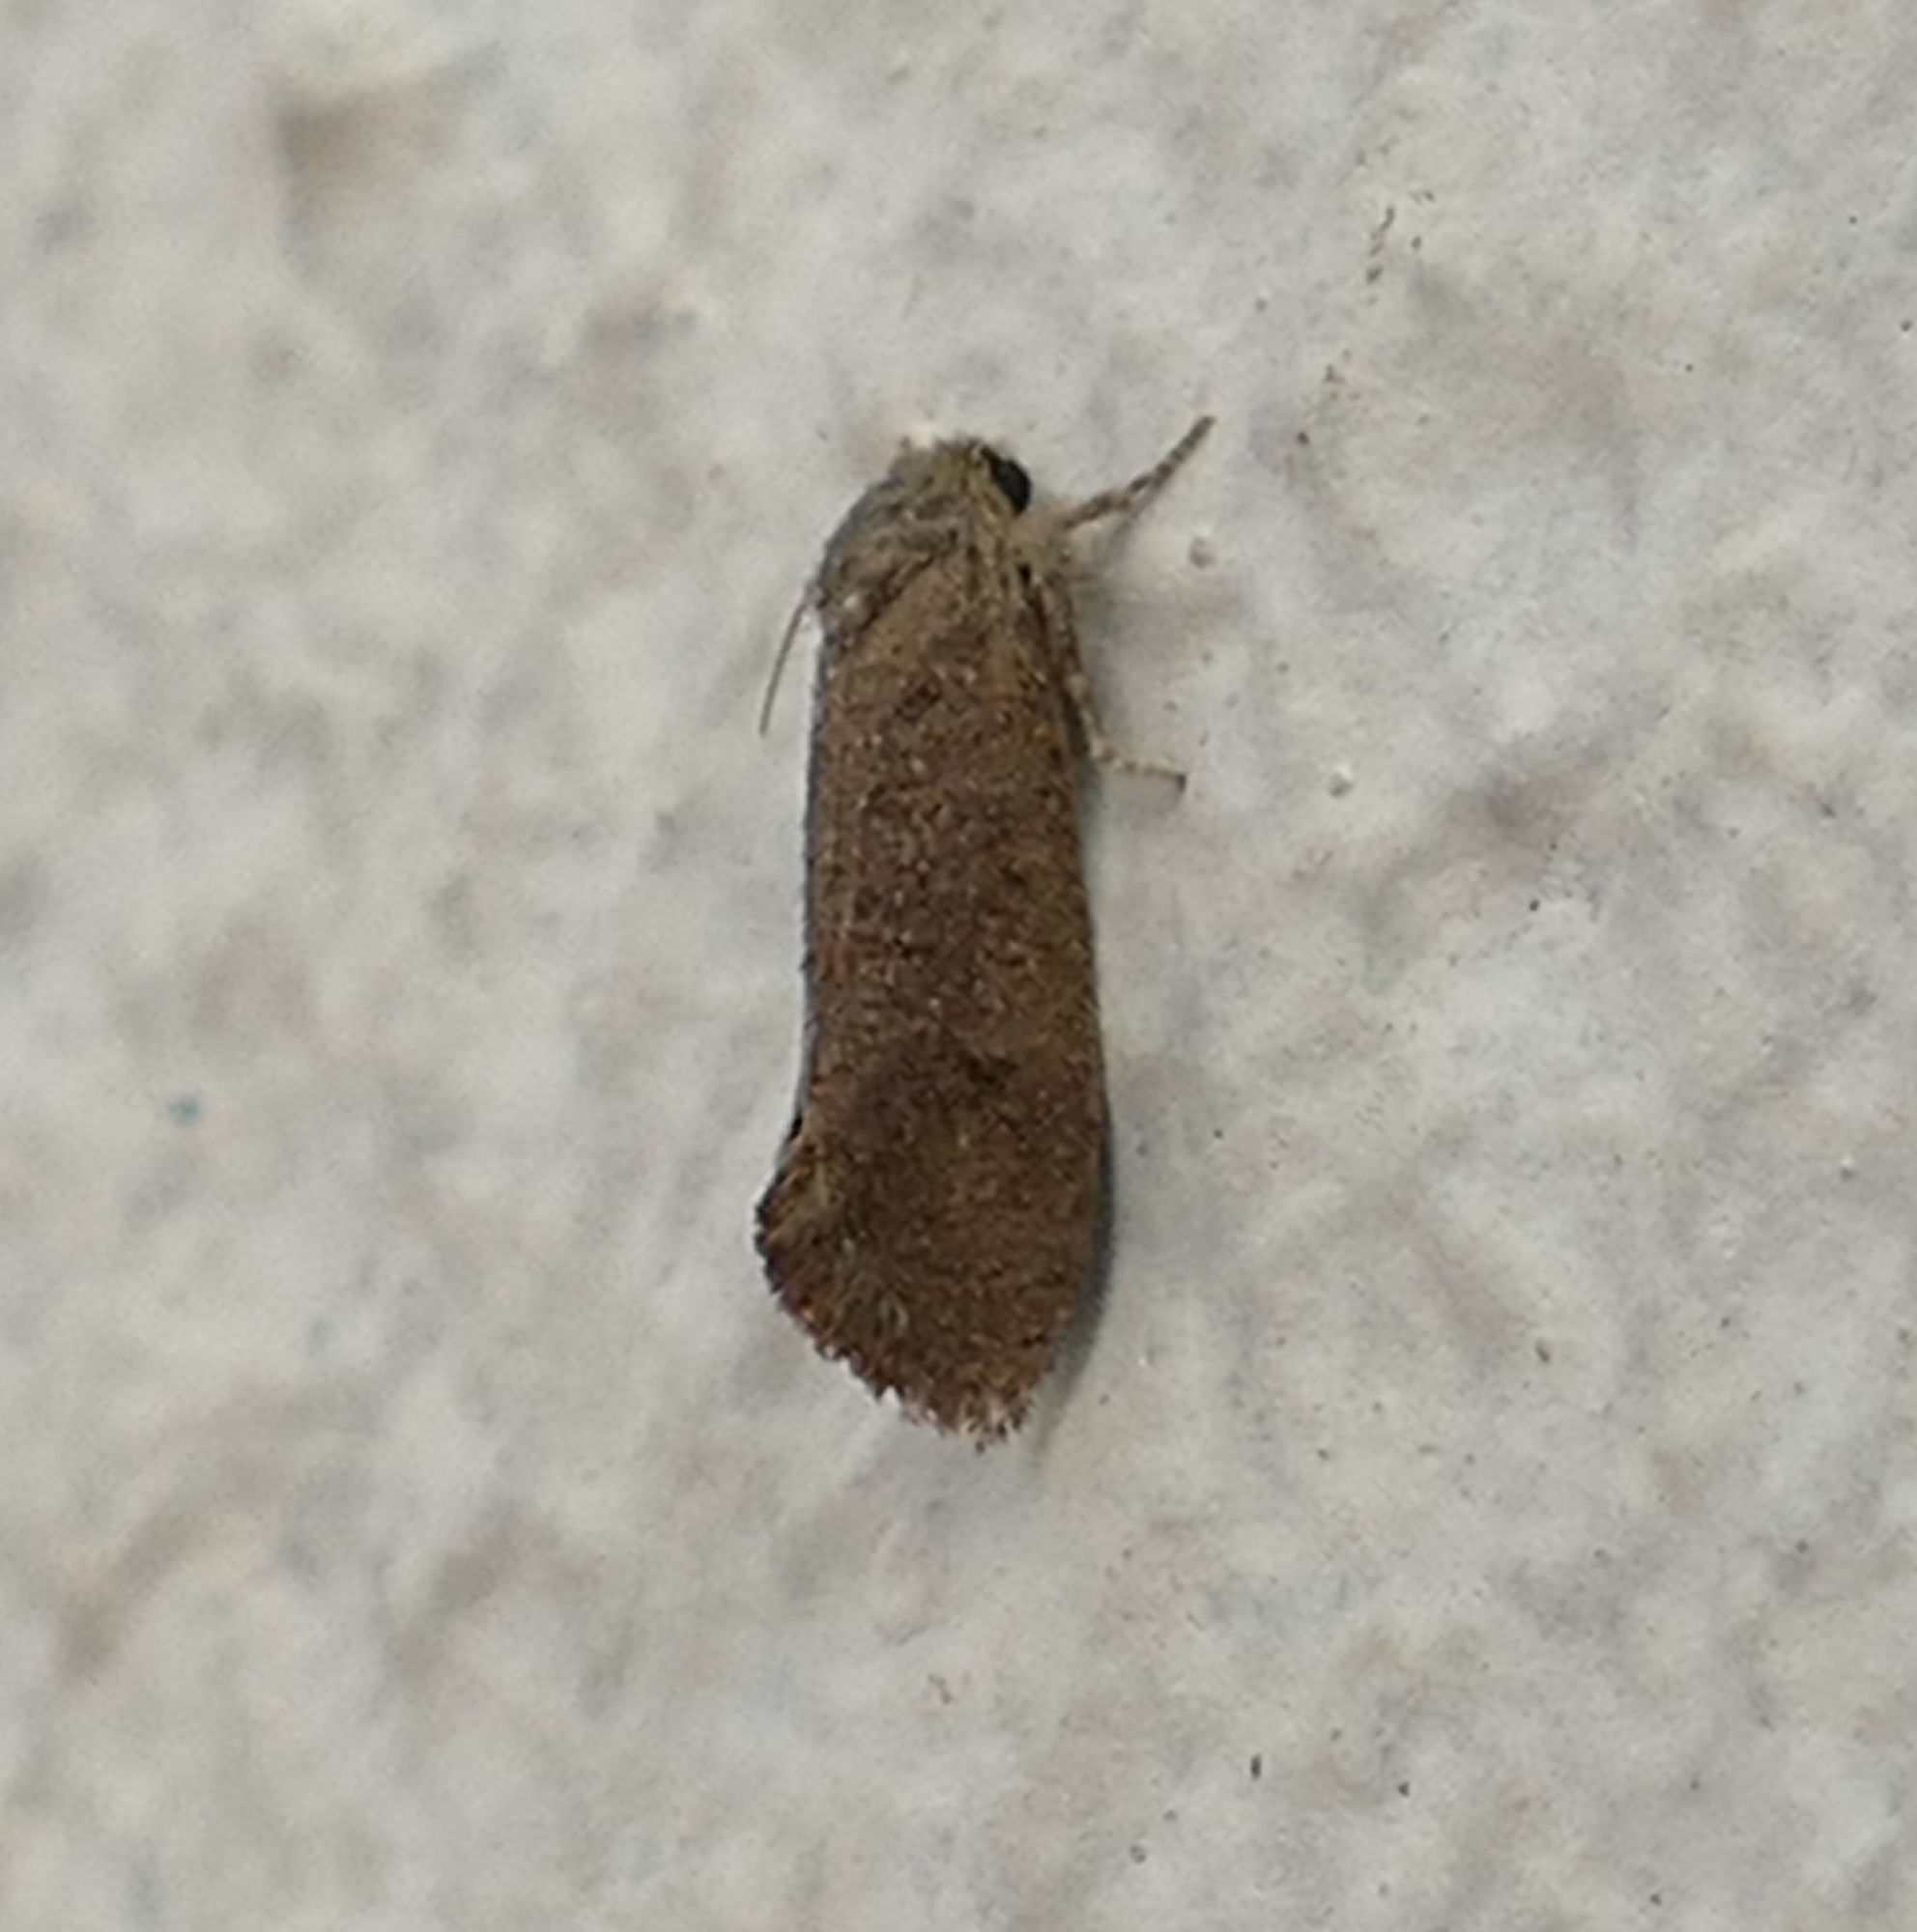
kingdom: Animalia
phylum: Arthropoda
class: Insecta
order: Lepidoptera
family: Tineidae
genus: Acrolophus
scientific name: Acrolophus heppneri
